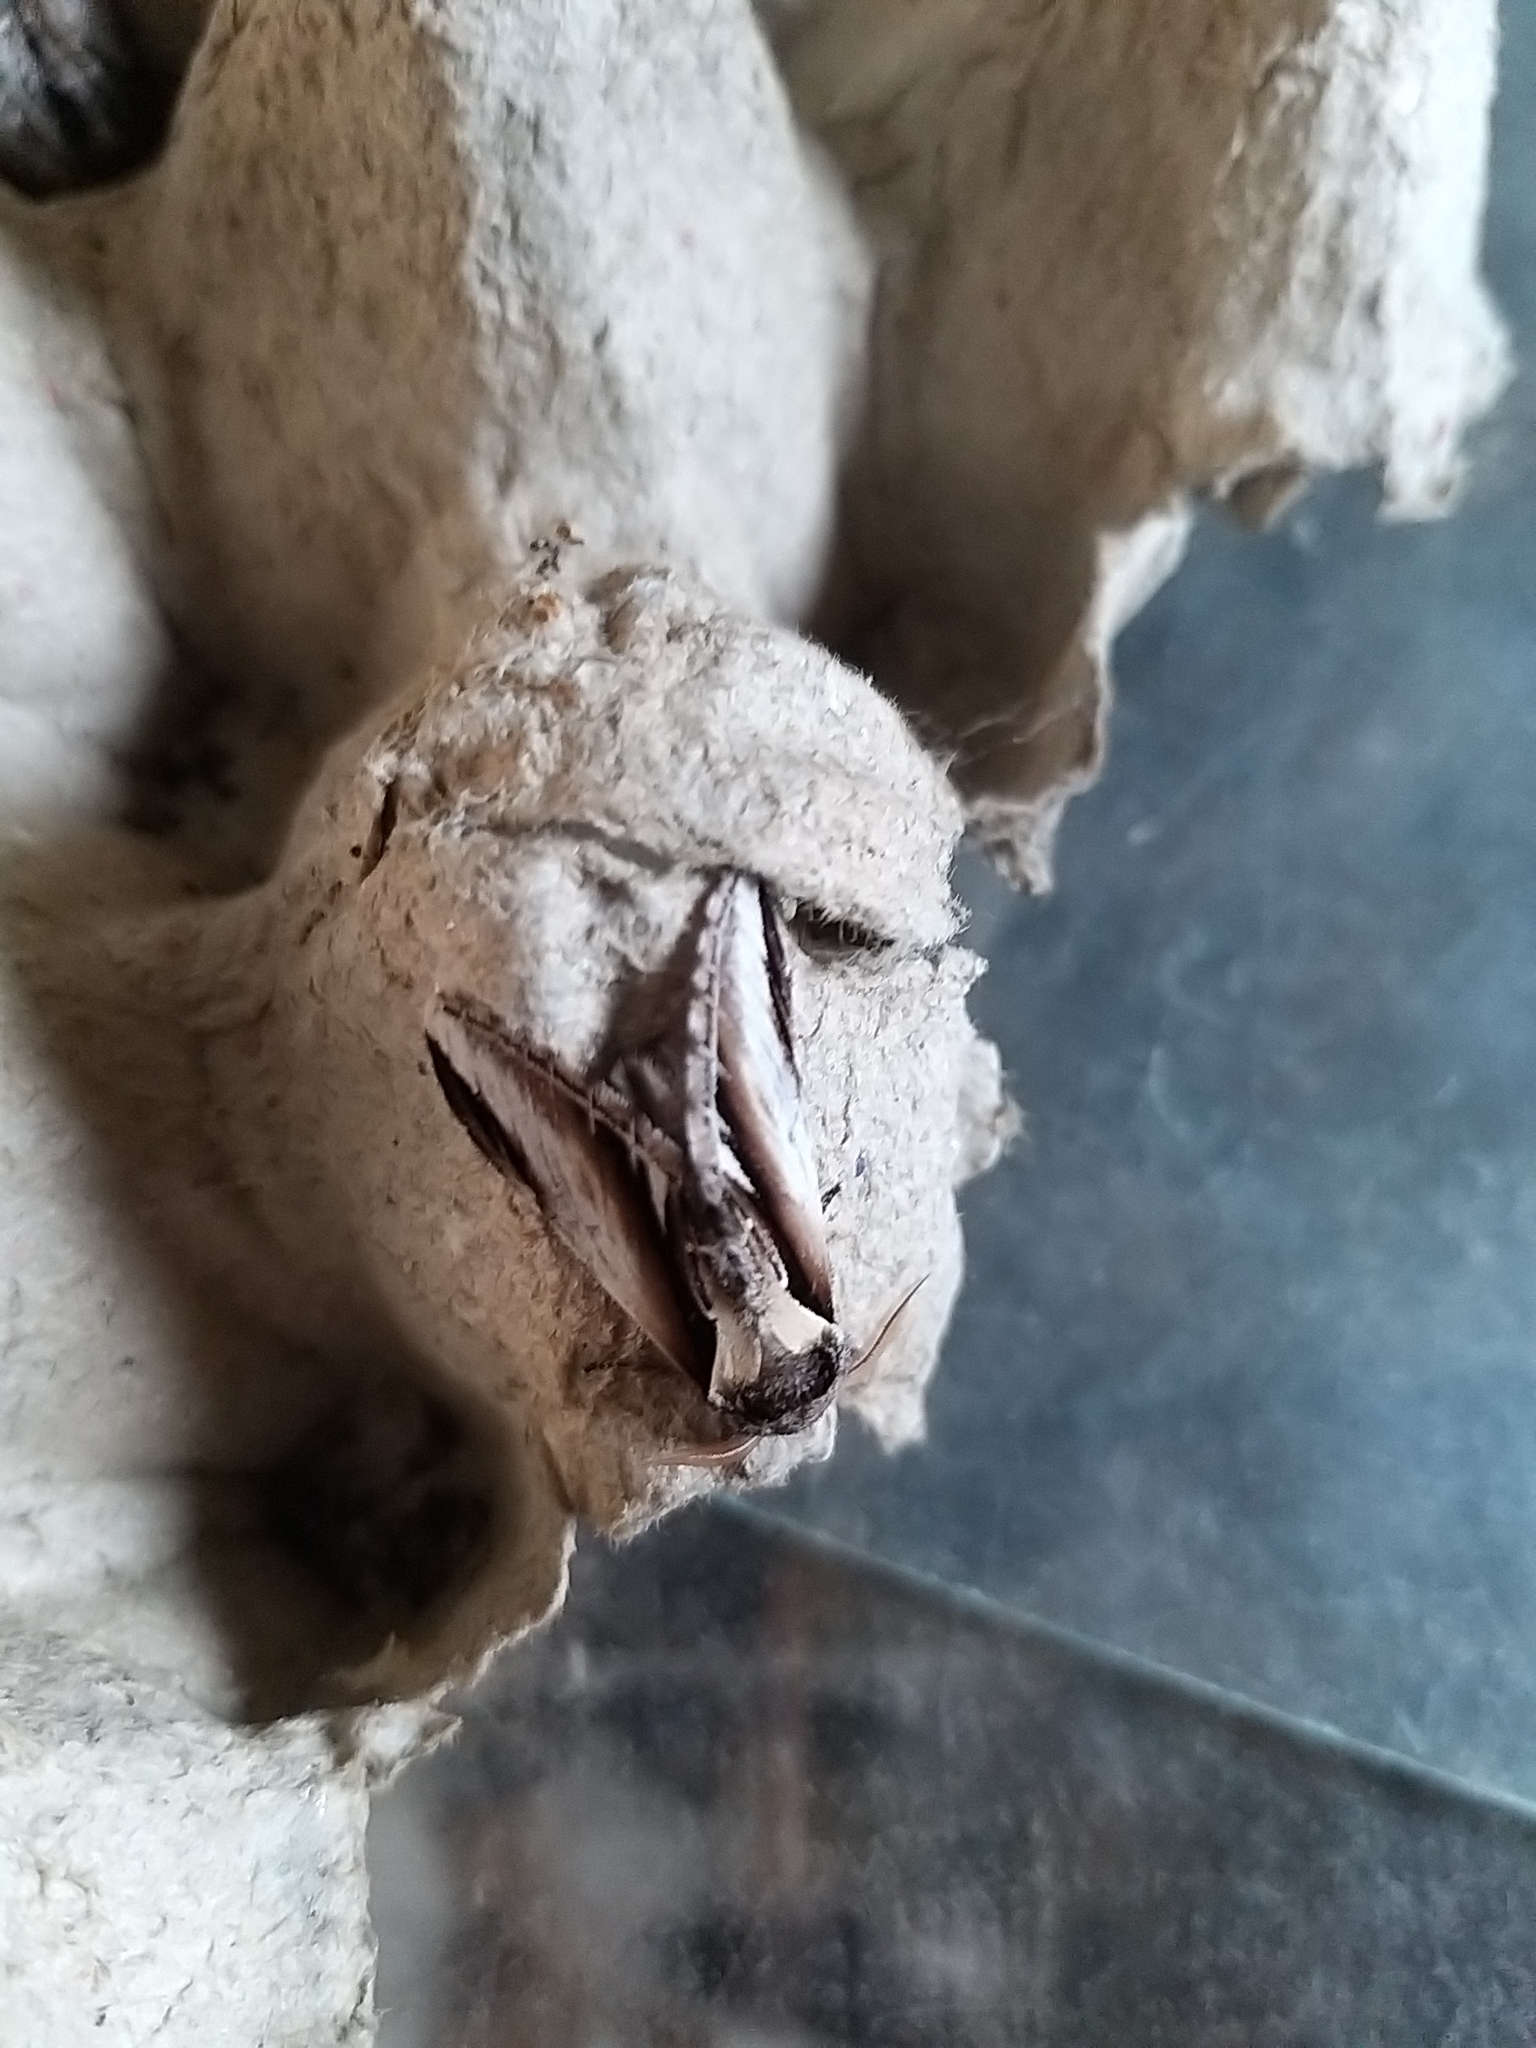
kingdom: Animalia
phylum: Arthropoda
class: Insecta
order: Lepidoptera
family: Notodontidae
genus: Pheosia
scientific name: Pheosia gnoma
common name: Lesser swallow prominent
